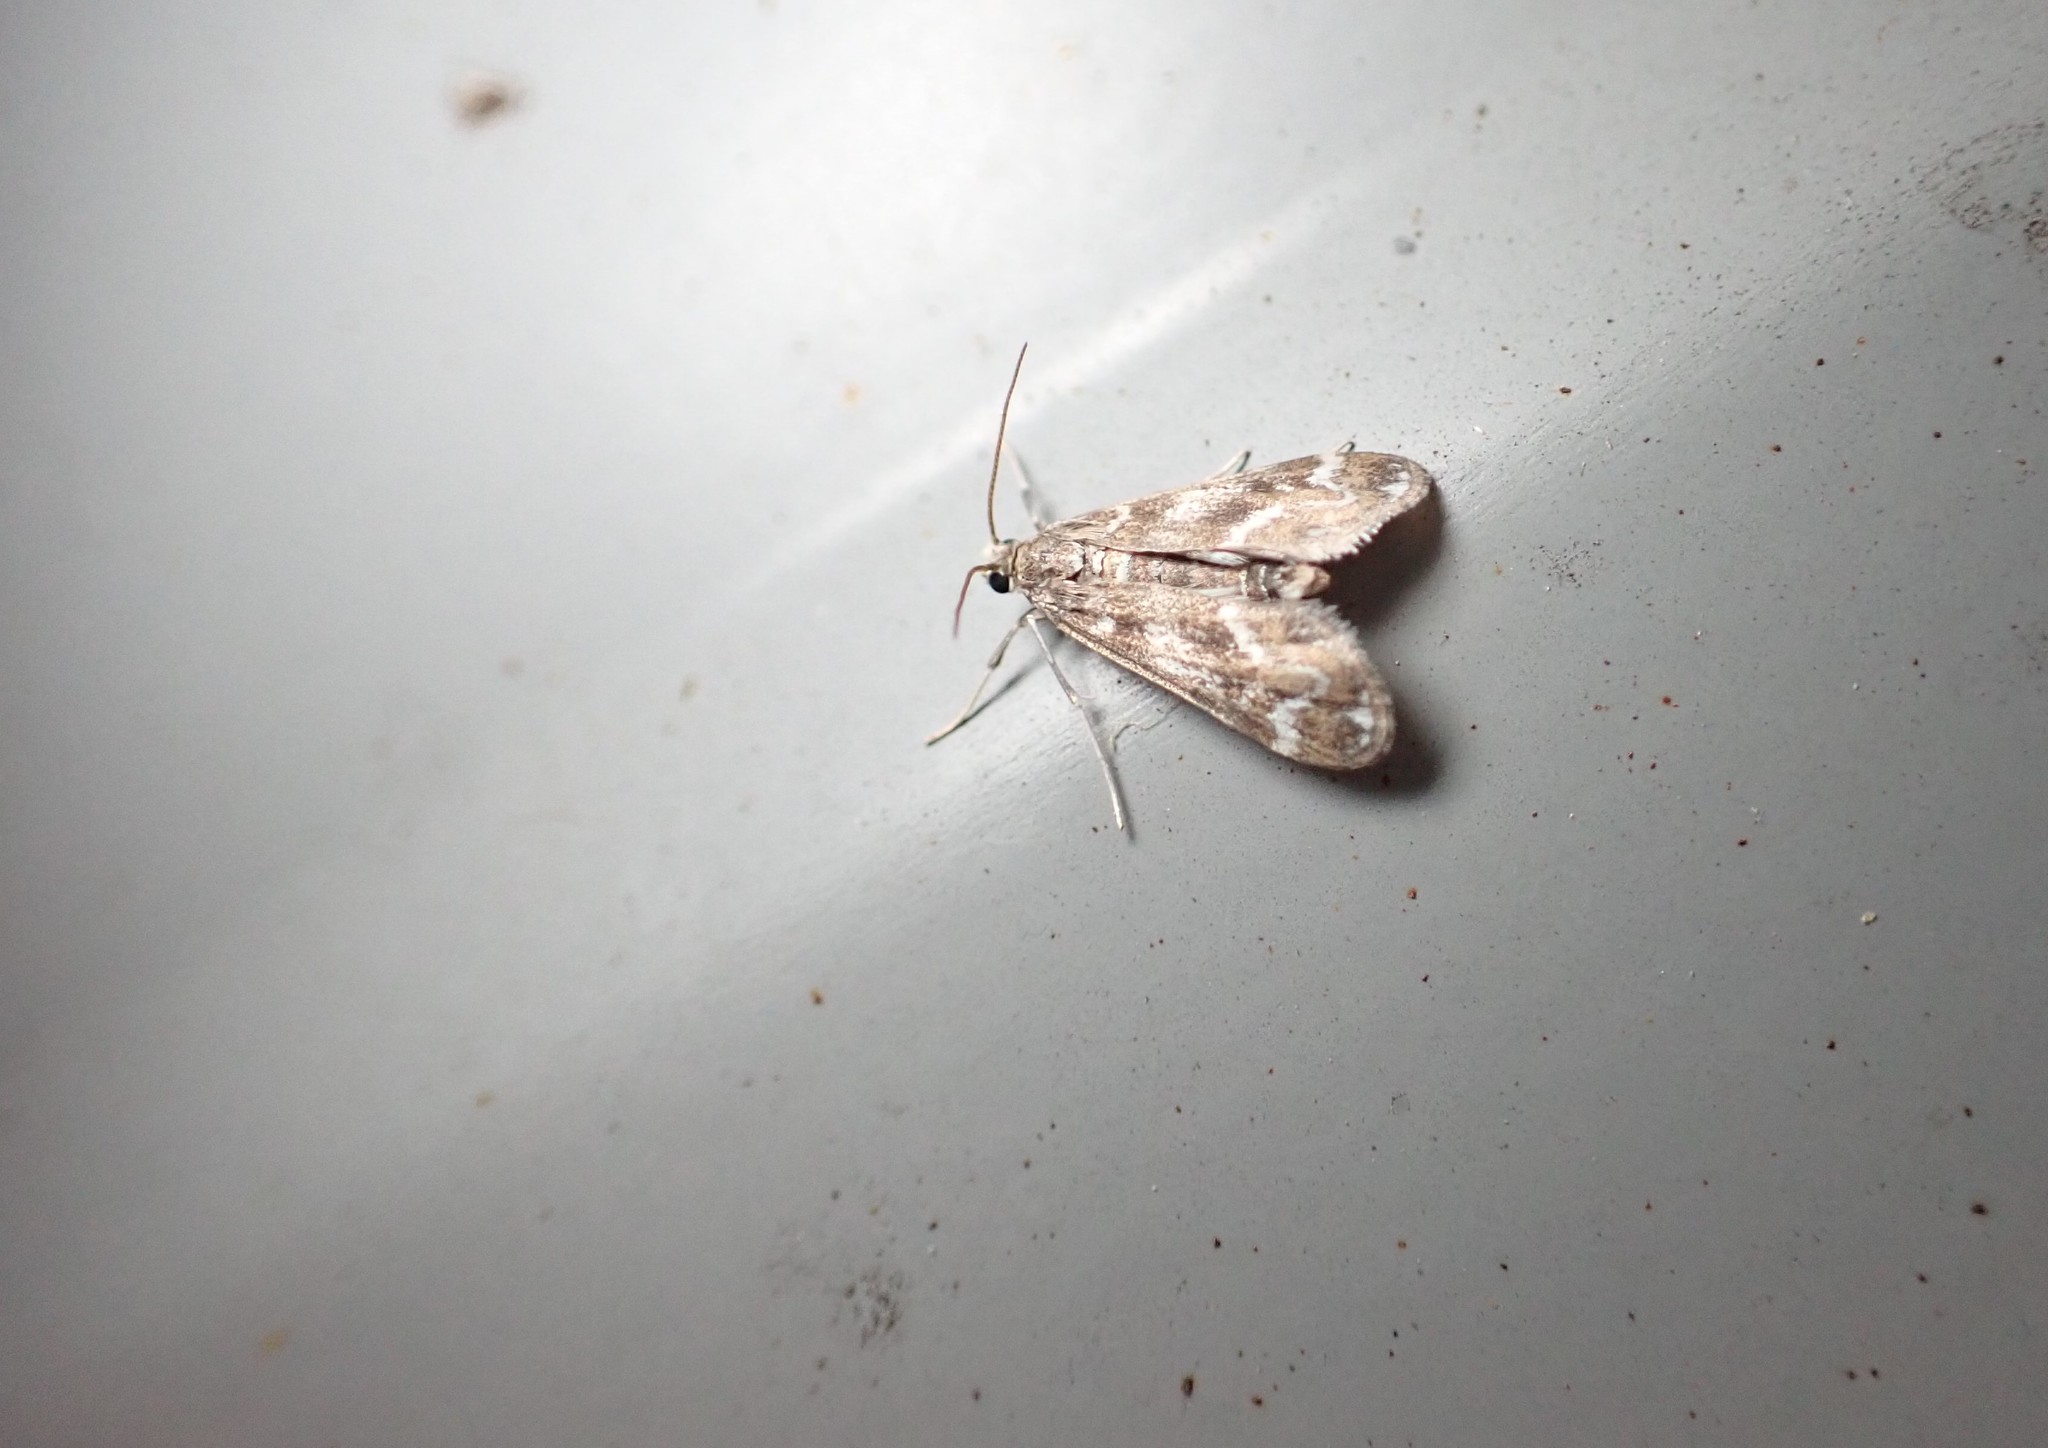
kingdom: Animalia
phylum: Arthropoda
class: Insecta
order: Lepidoptera
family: Crambidae
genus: Hygraula
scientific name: Hygraula nitens
